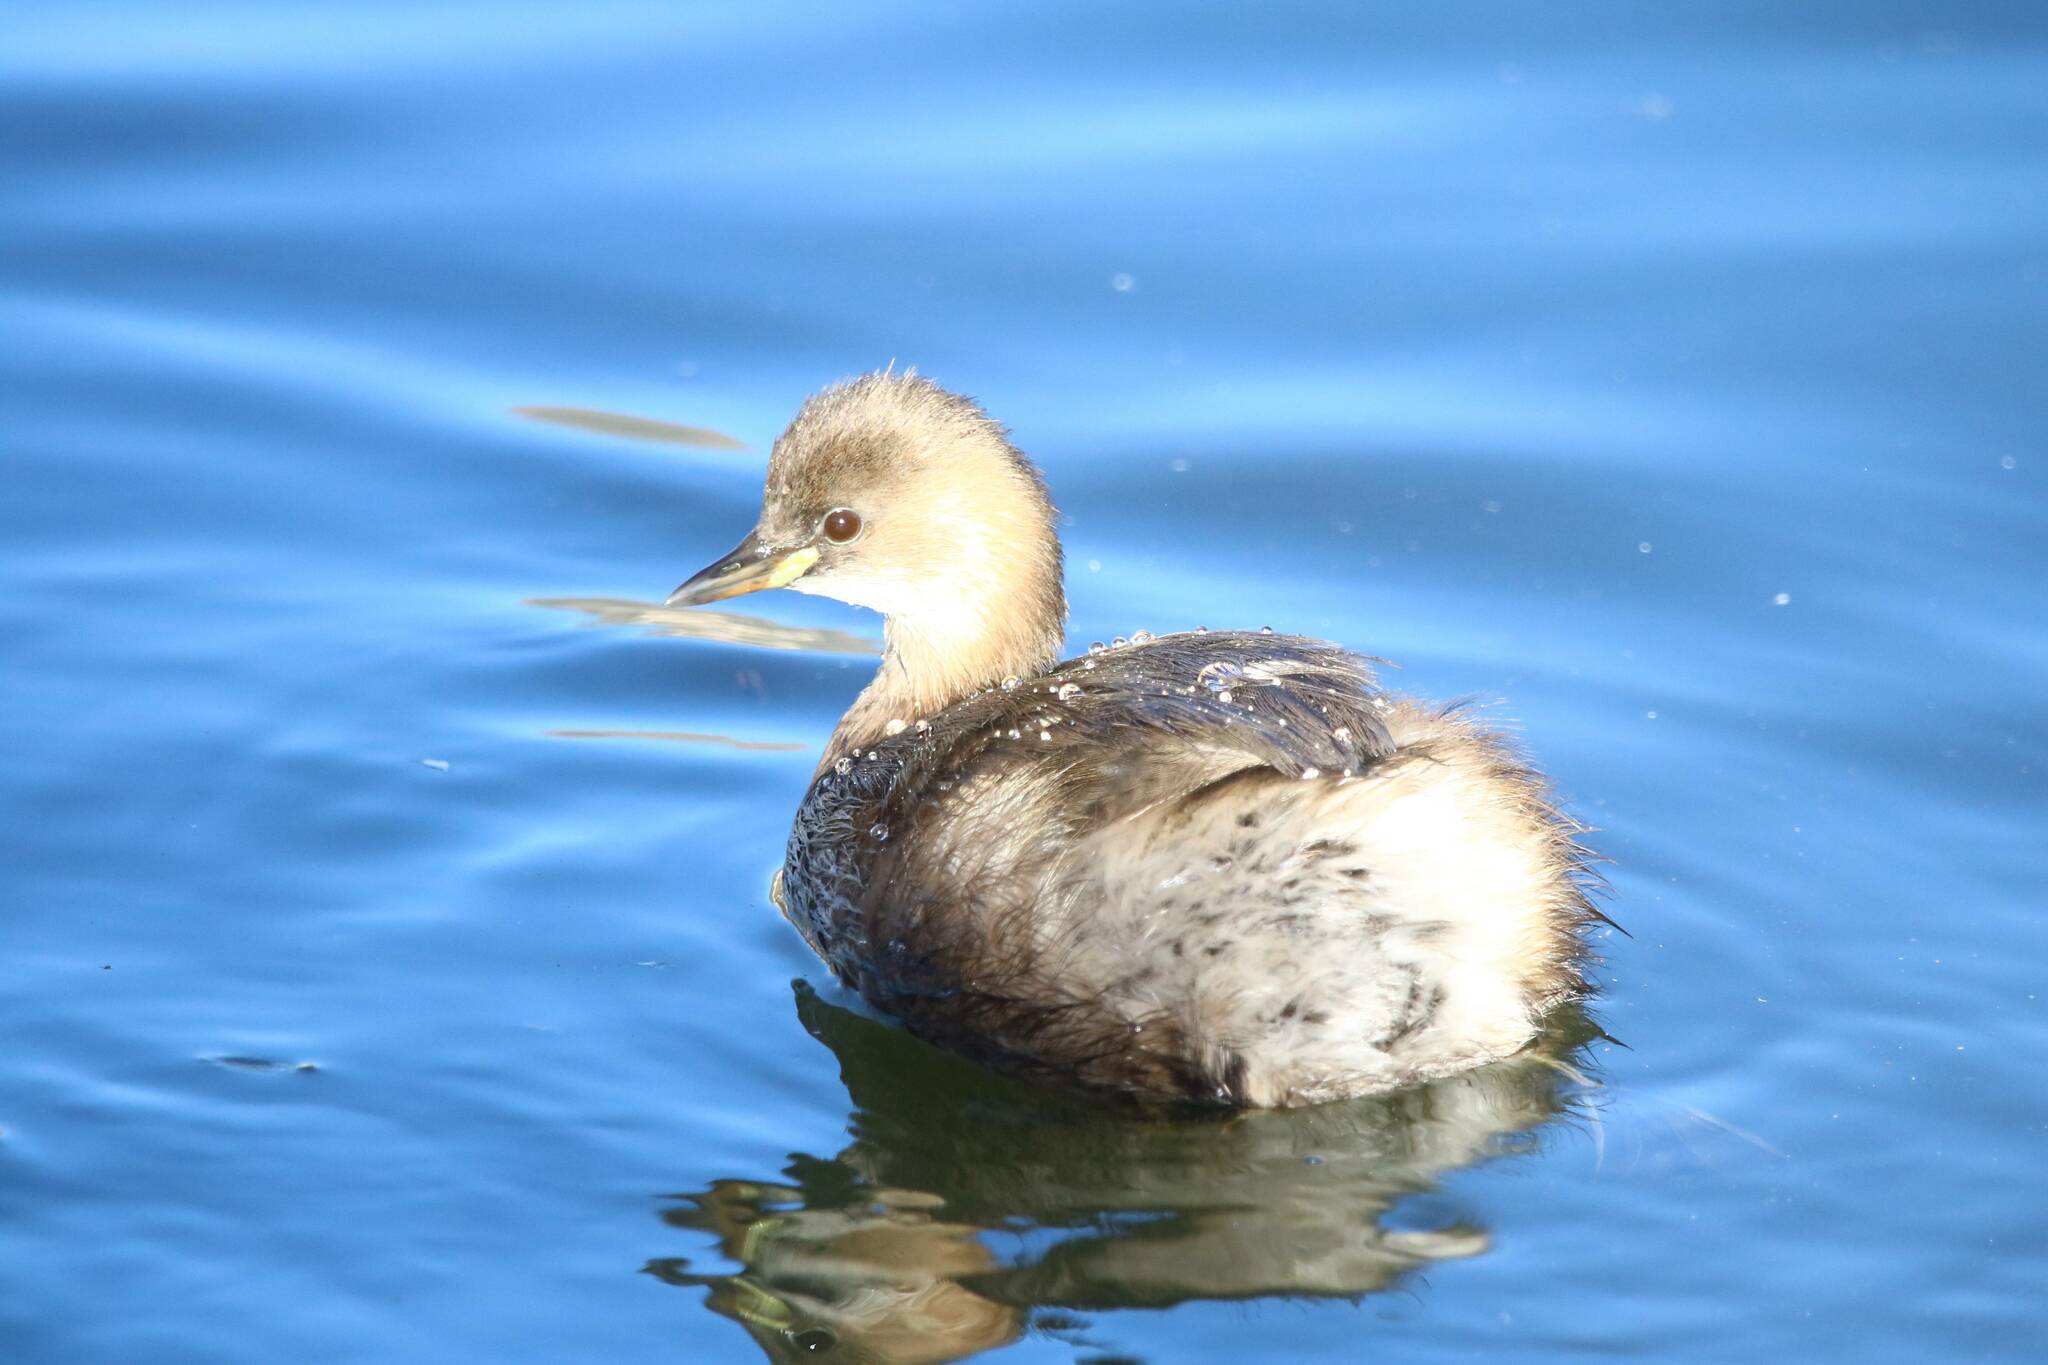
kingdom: Animalia
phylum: Chordata
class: Aves
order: Podicipediformes
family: Podicipedidae
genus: Tachybaptus
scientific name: Tachybaptus ruficollis
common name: Little grebe
